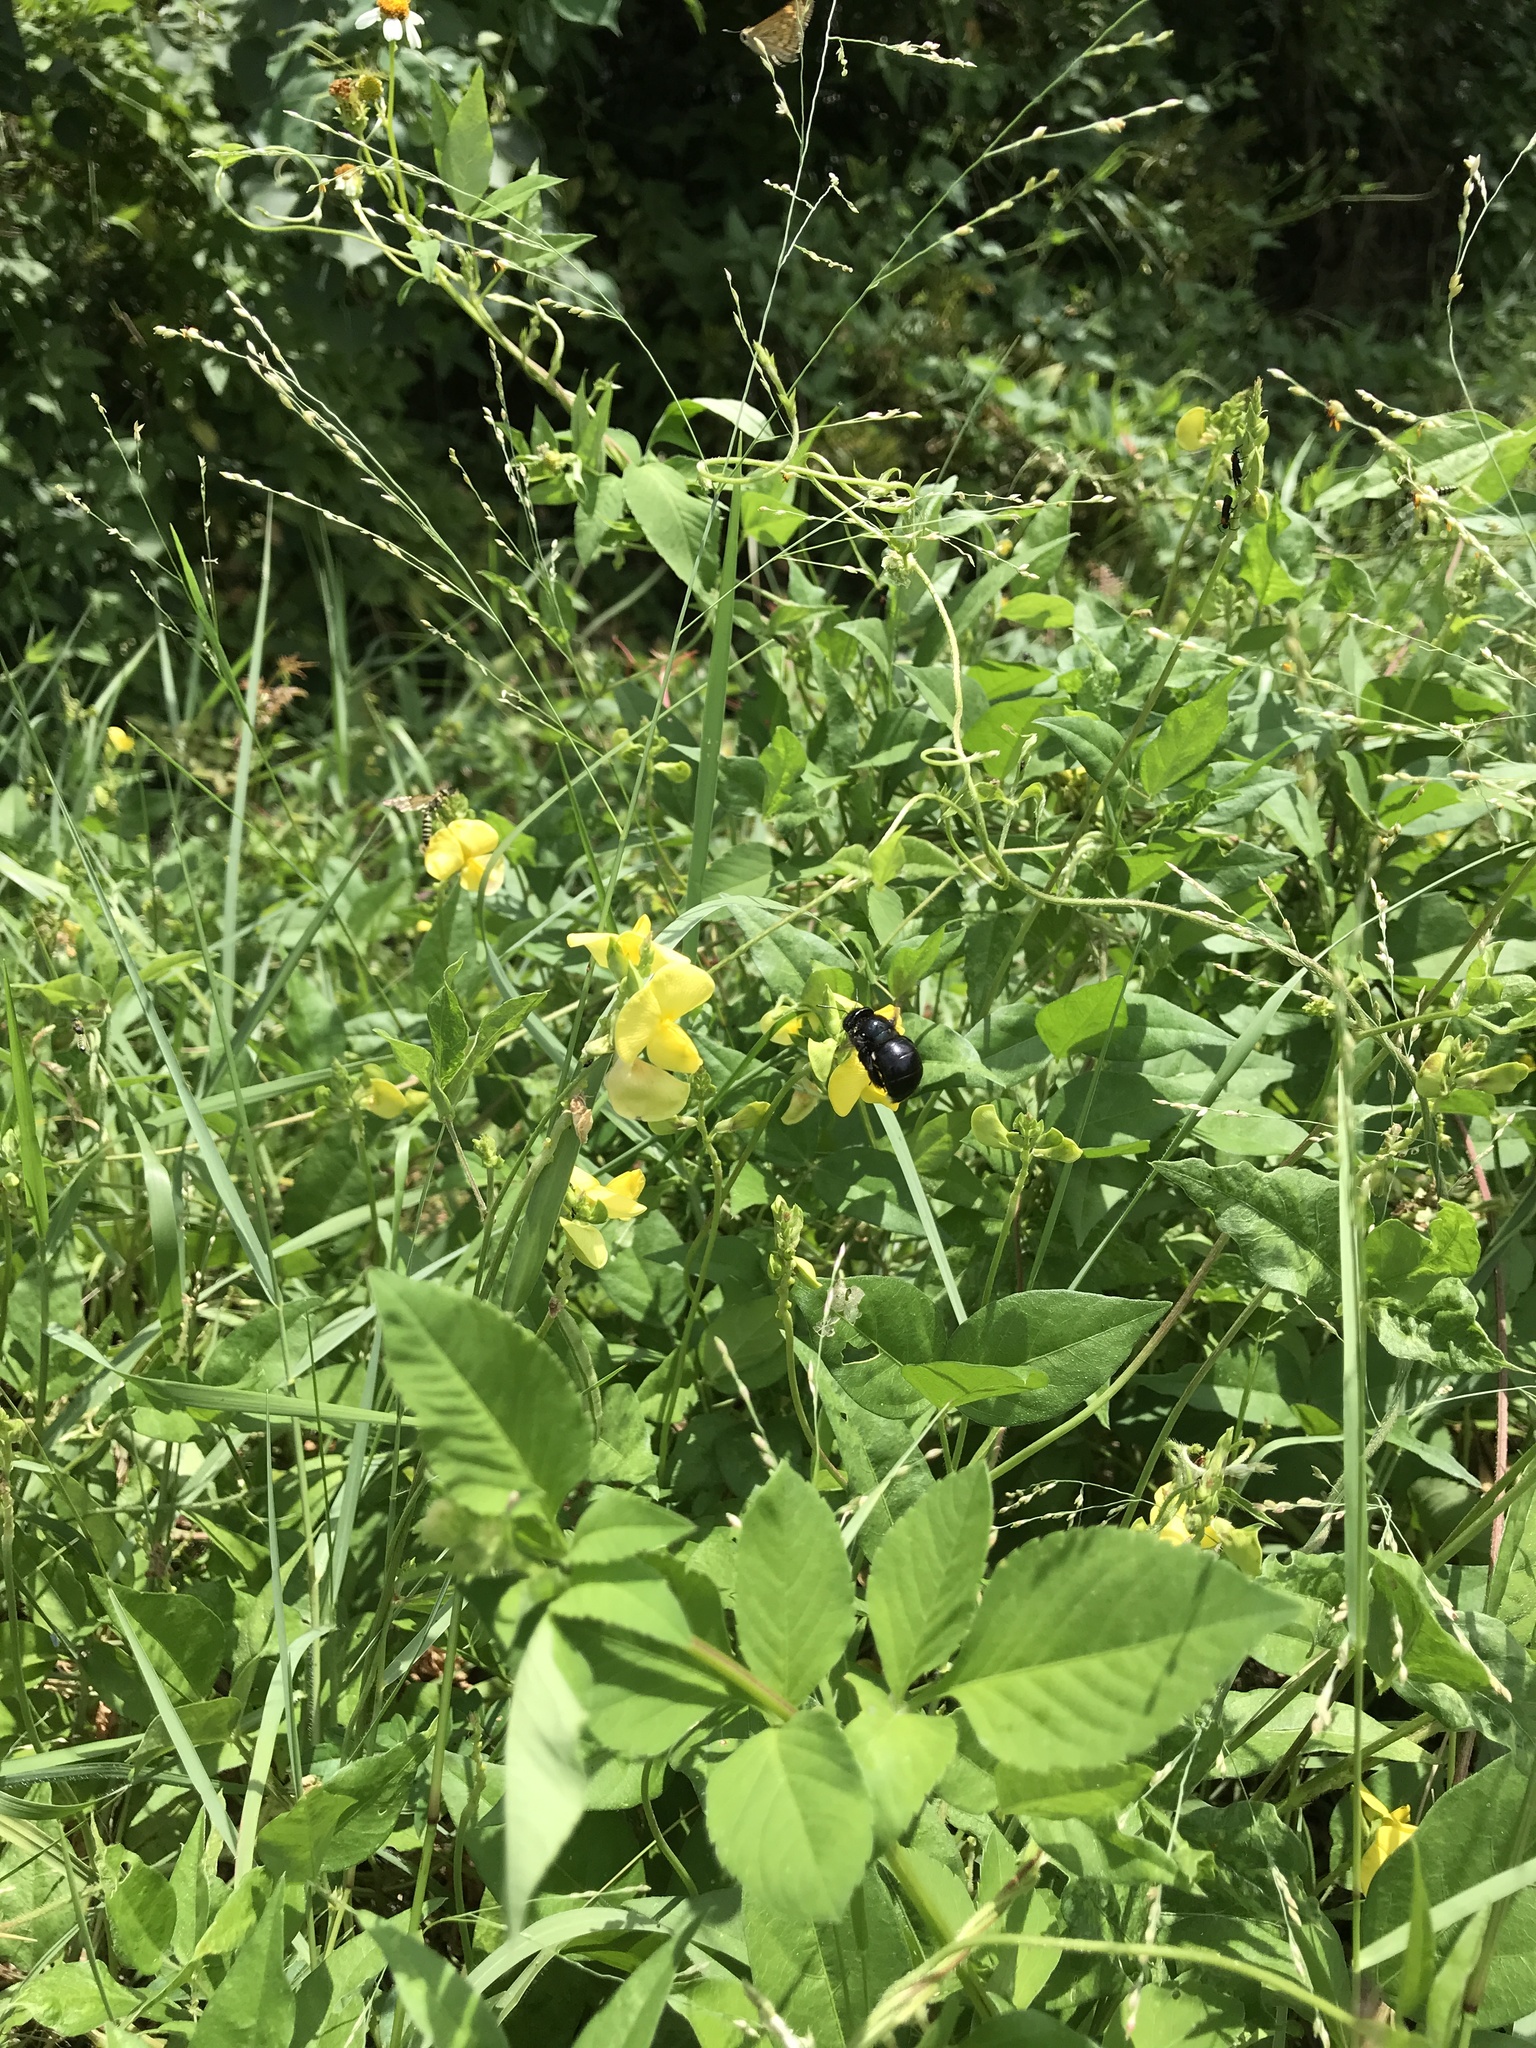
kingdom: Animalia
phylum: Arthropoda
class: Insecta
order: Hymenoptera
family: Apidae
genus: Xylocopa
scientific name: Xylocopa micans
